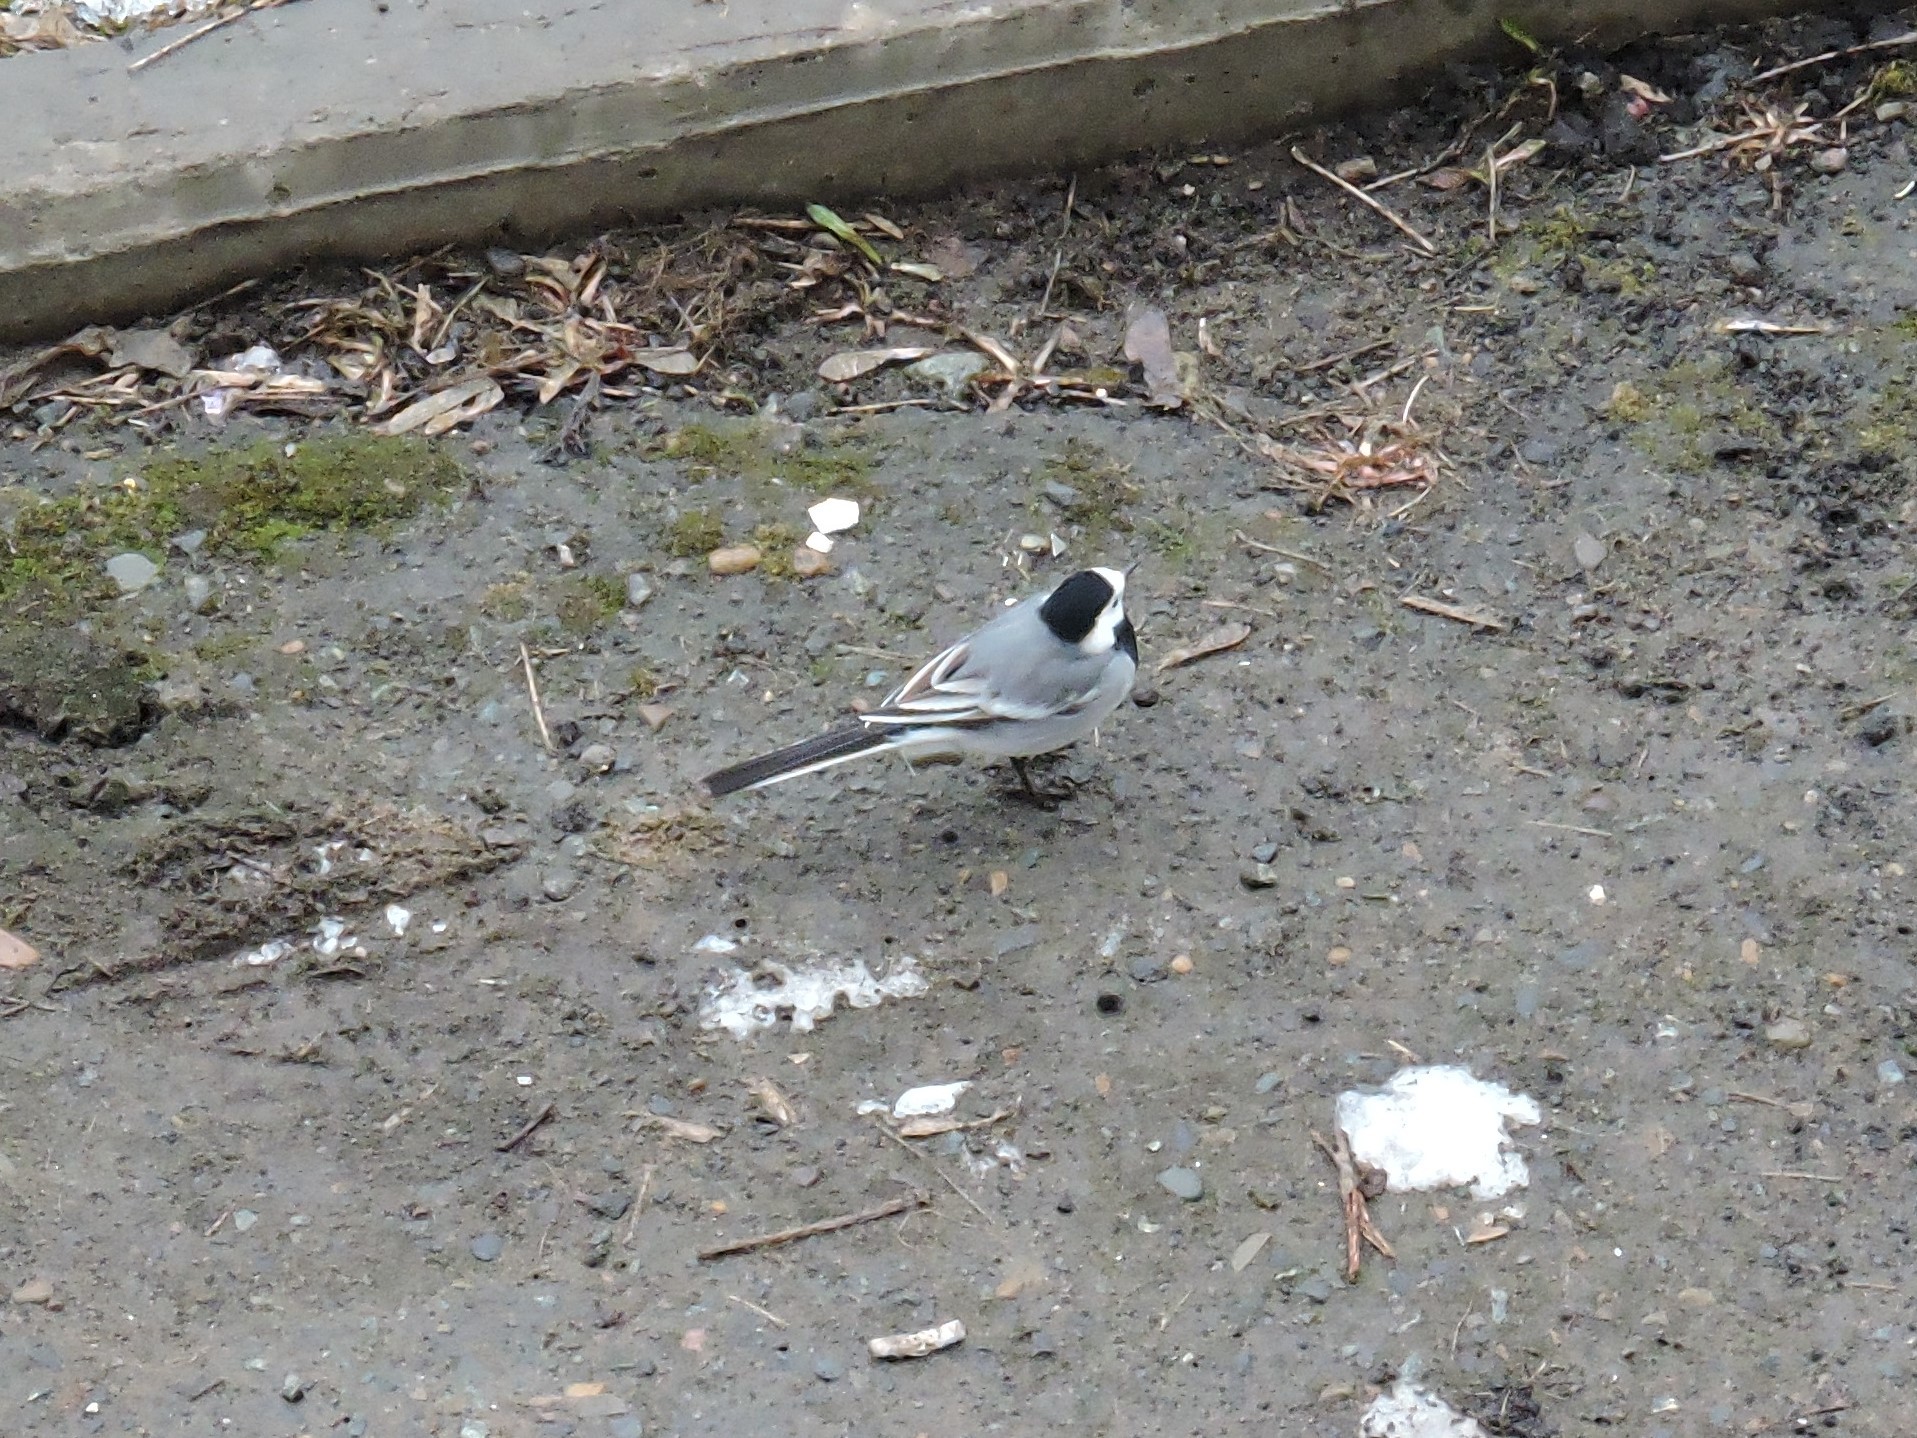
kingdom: Animalia
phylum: Chordata
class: Aves
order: Passeriformes
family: Motacillidae
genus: Motacilla
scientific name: Motacilla alba
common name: White wagtail
